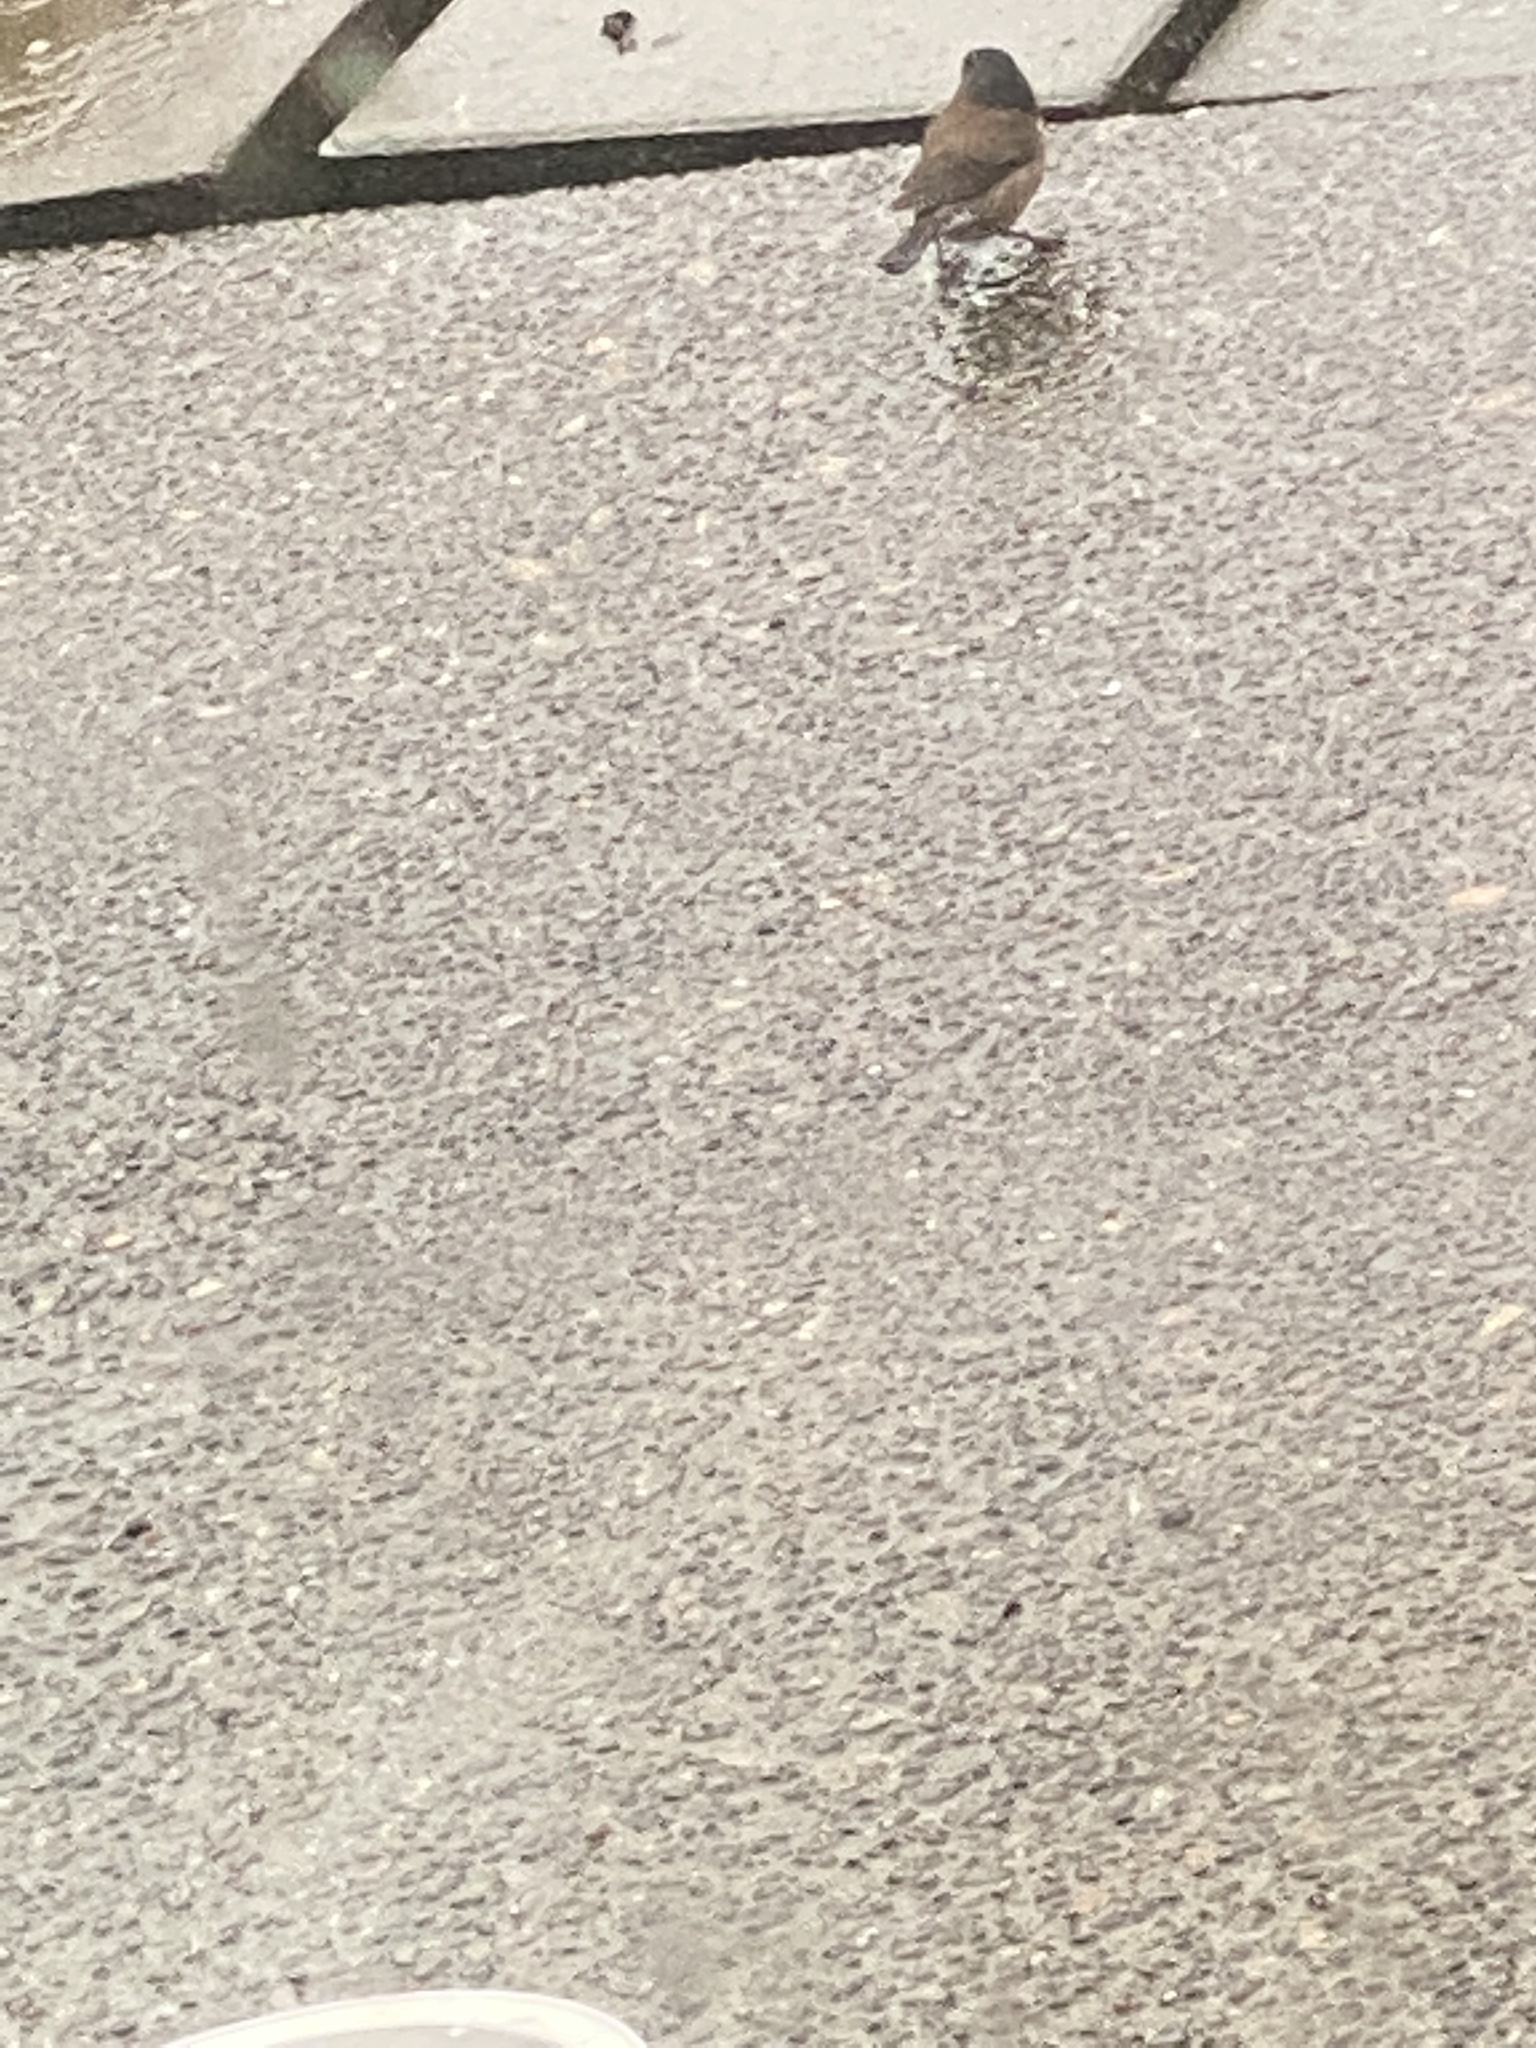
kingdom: Animalia
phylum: Chordata
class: Aves
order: Passeriformes
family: Passerellidae
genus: Junco
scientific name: Junco hyemalis
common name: Dark-eyed junco
